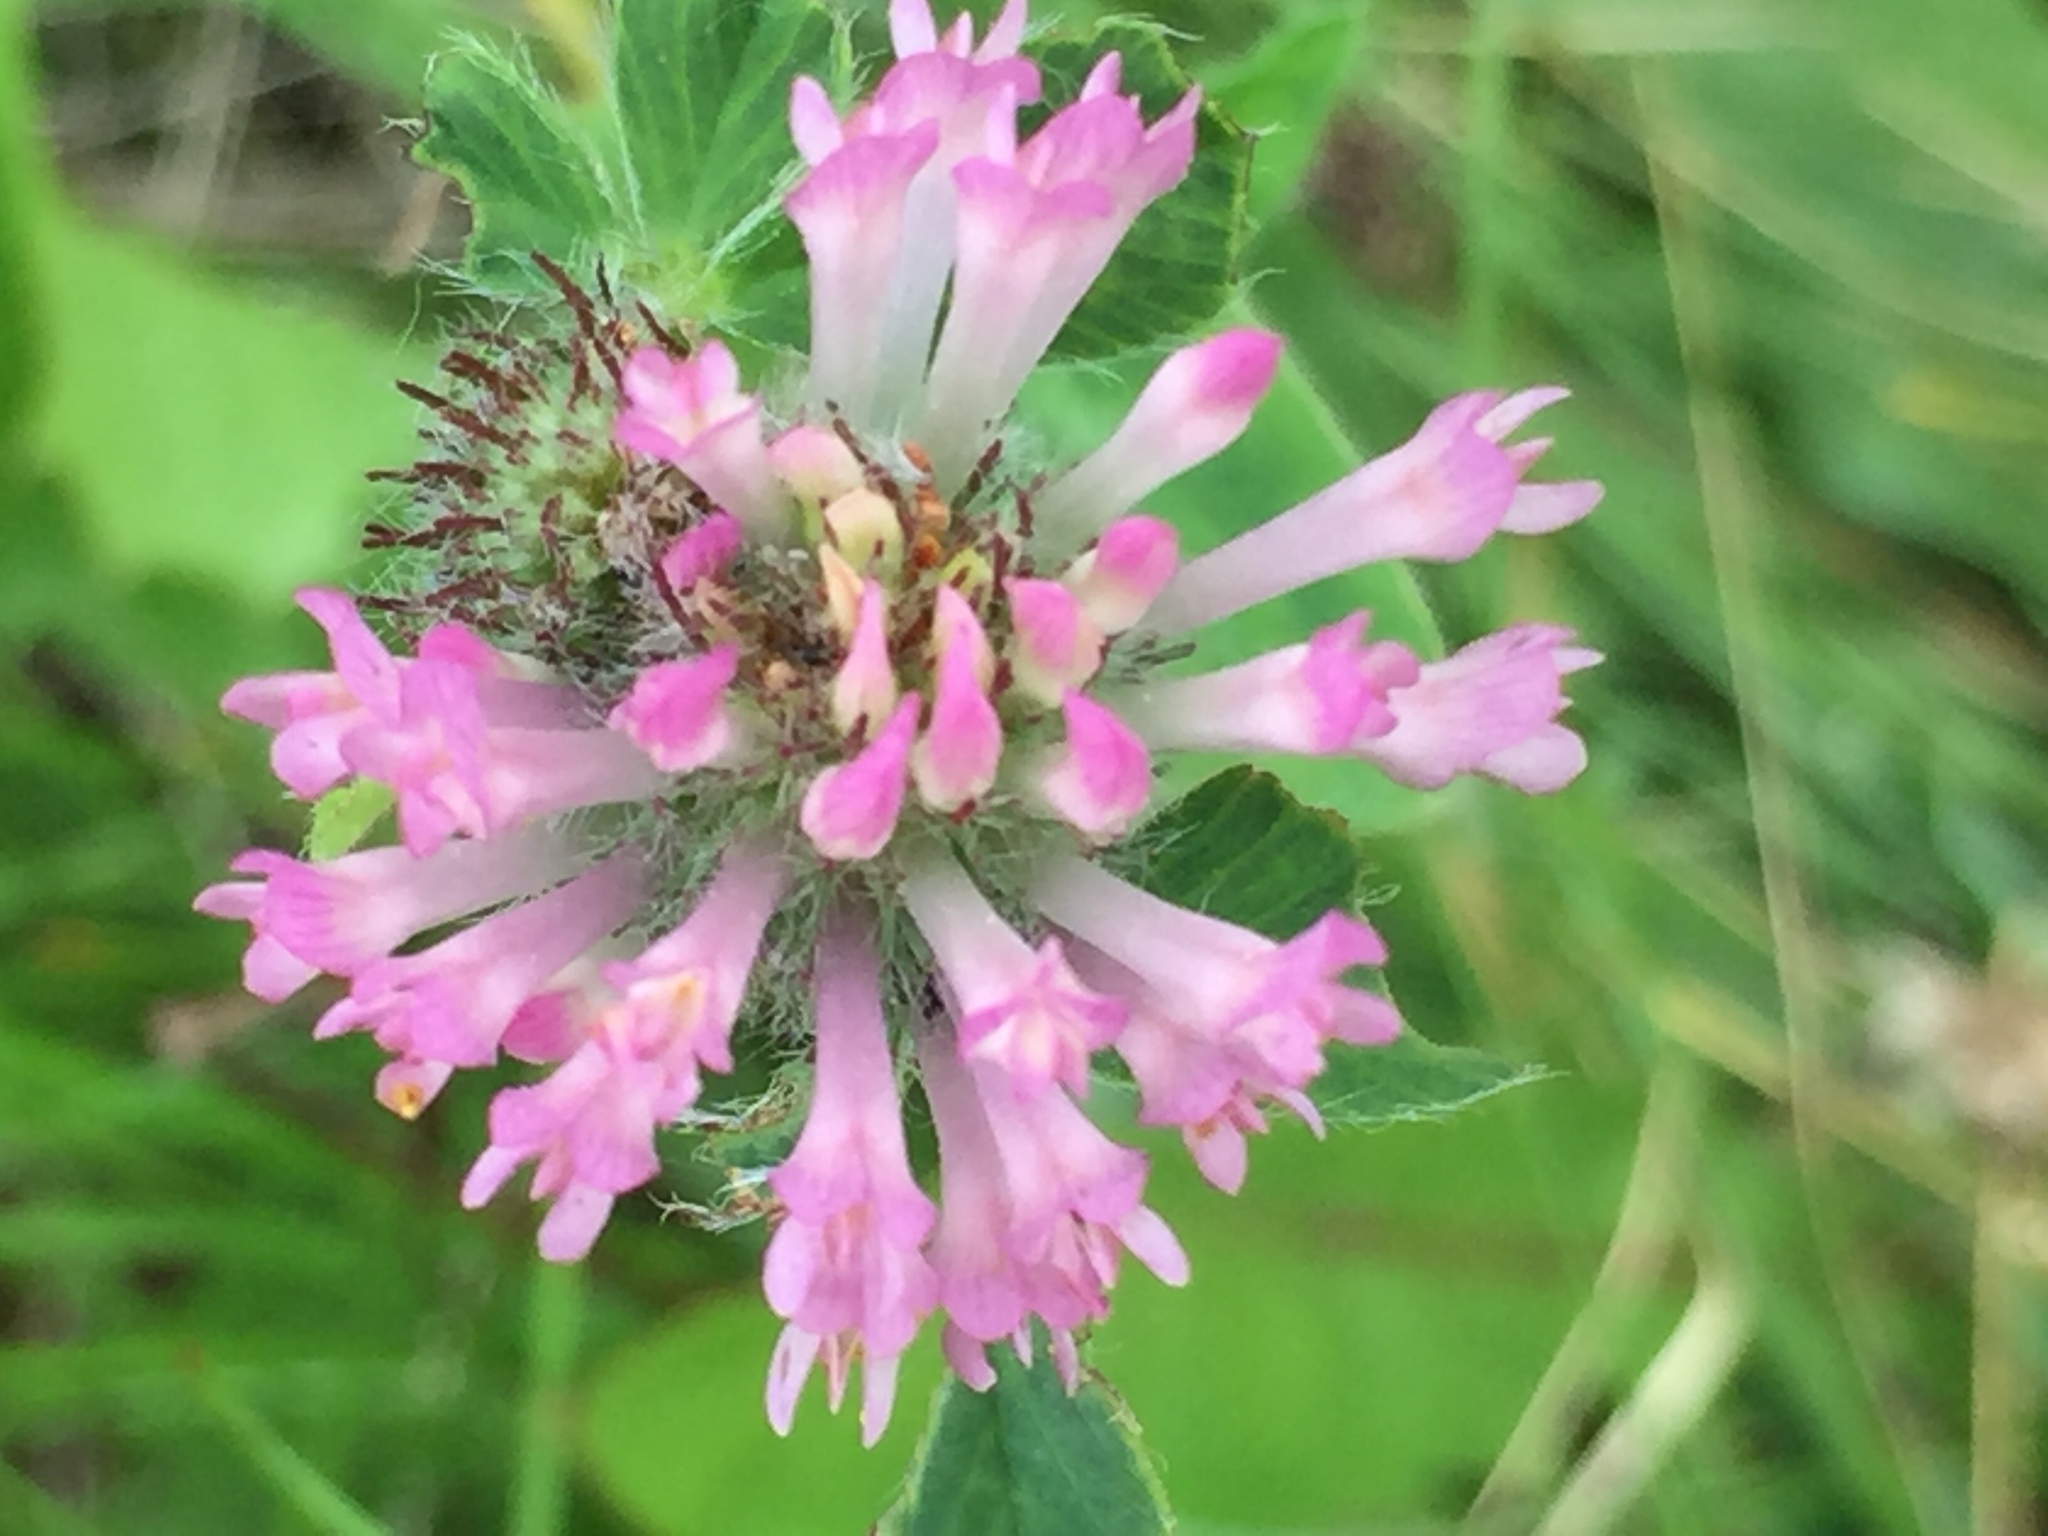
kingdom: Plantae
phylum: Tracheophyta
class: Magnoliopsida
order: Fabales
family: Fabaceae
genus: Trifolium
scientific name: Trifolium pratense
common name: Red clover
